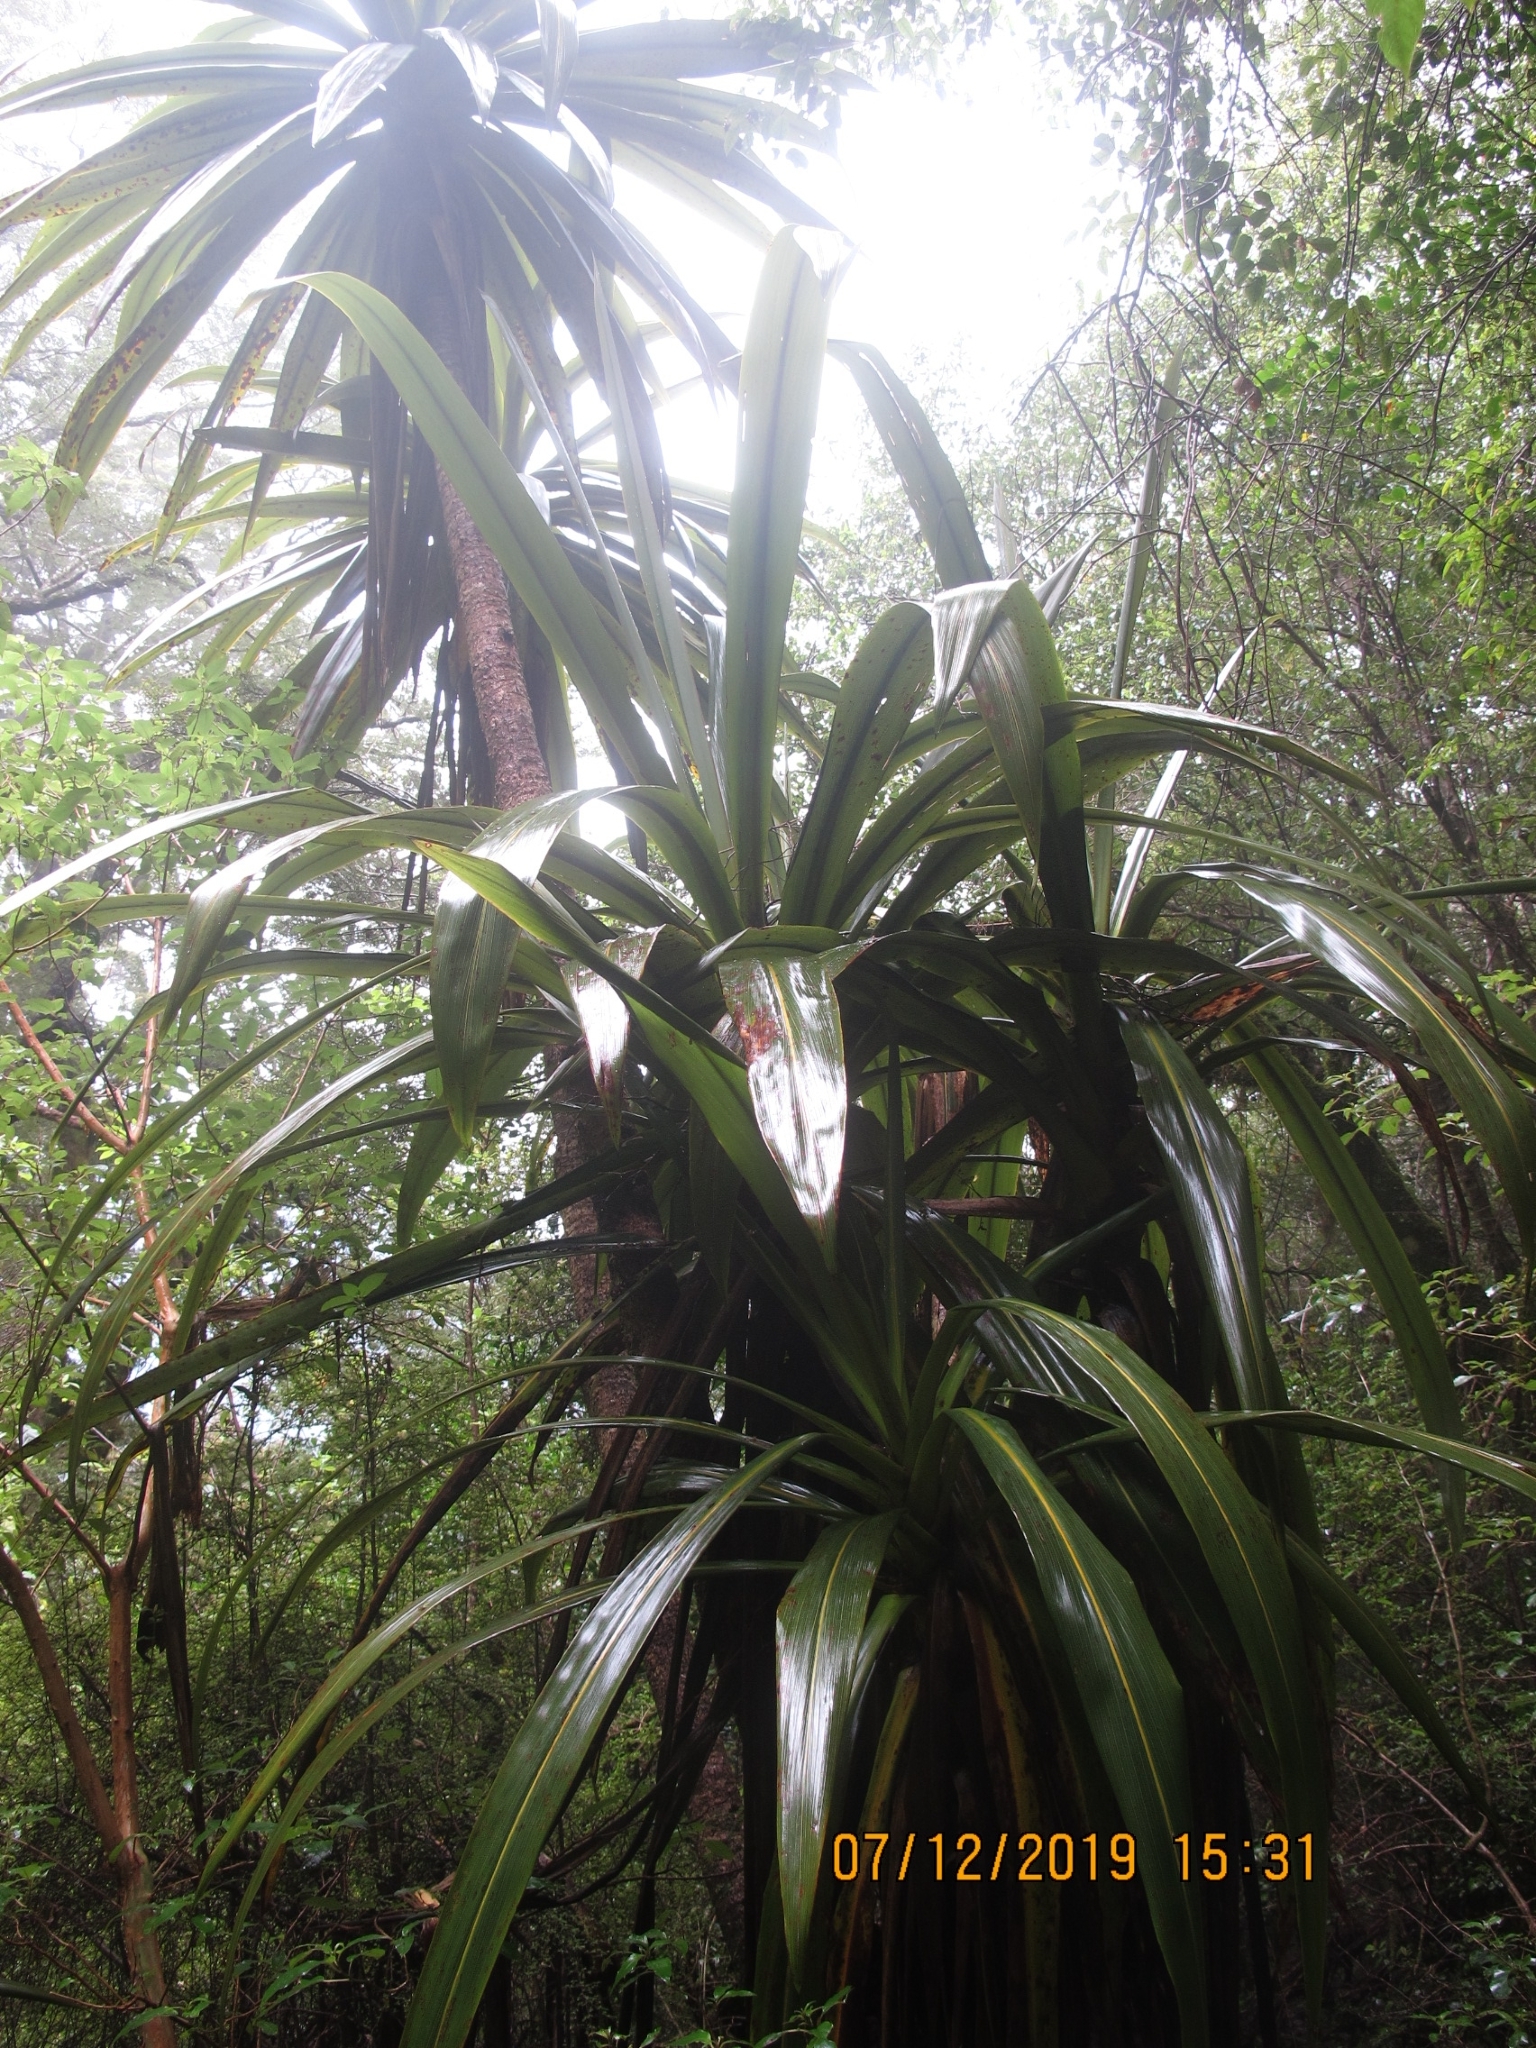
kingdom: Plantae
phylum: Tracheophyta
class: Liliopsida
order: Asparagales
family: Asparagaceae
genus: Cordyline
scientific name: Cordyline indivisa
